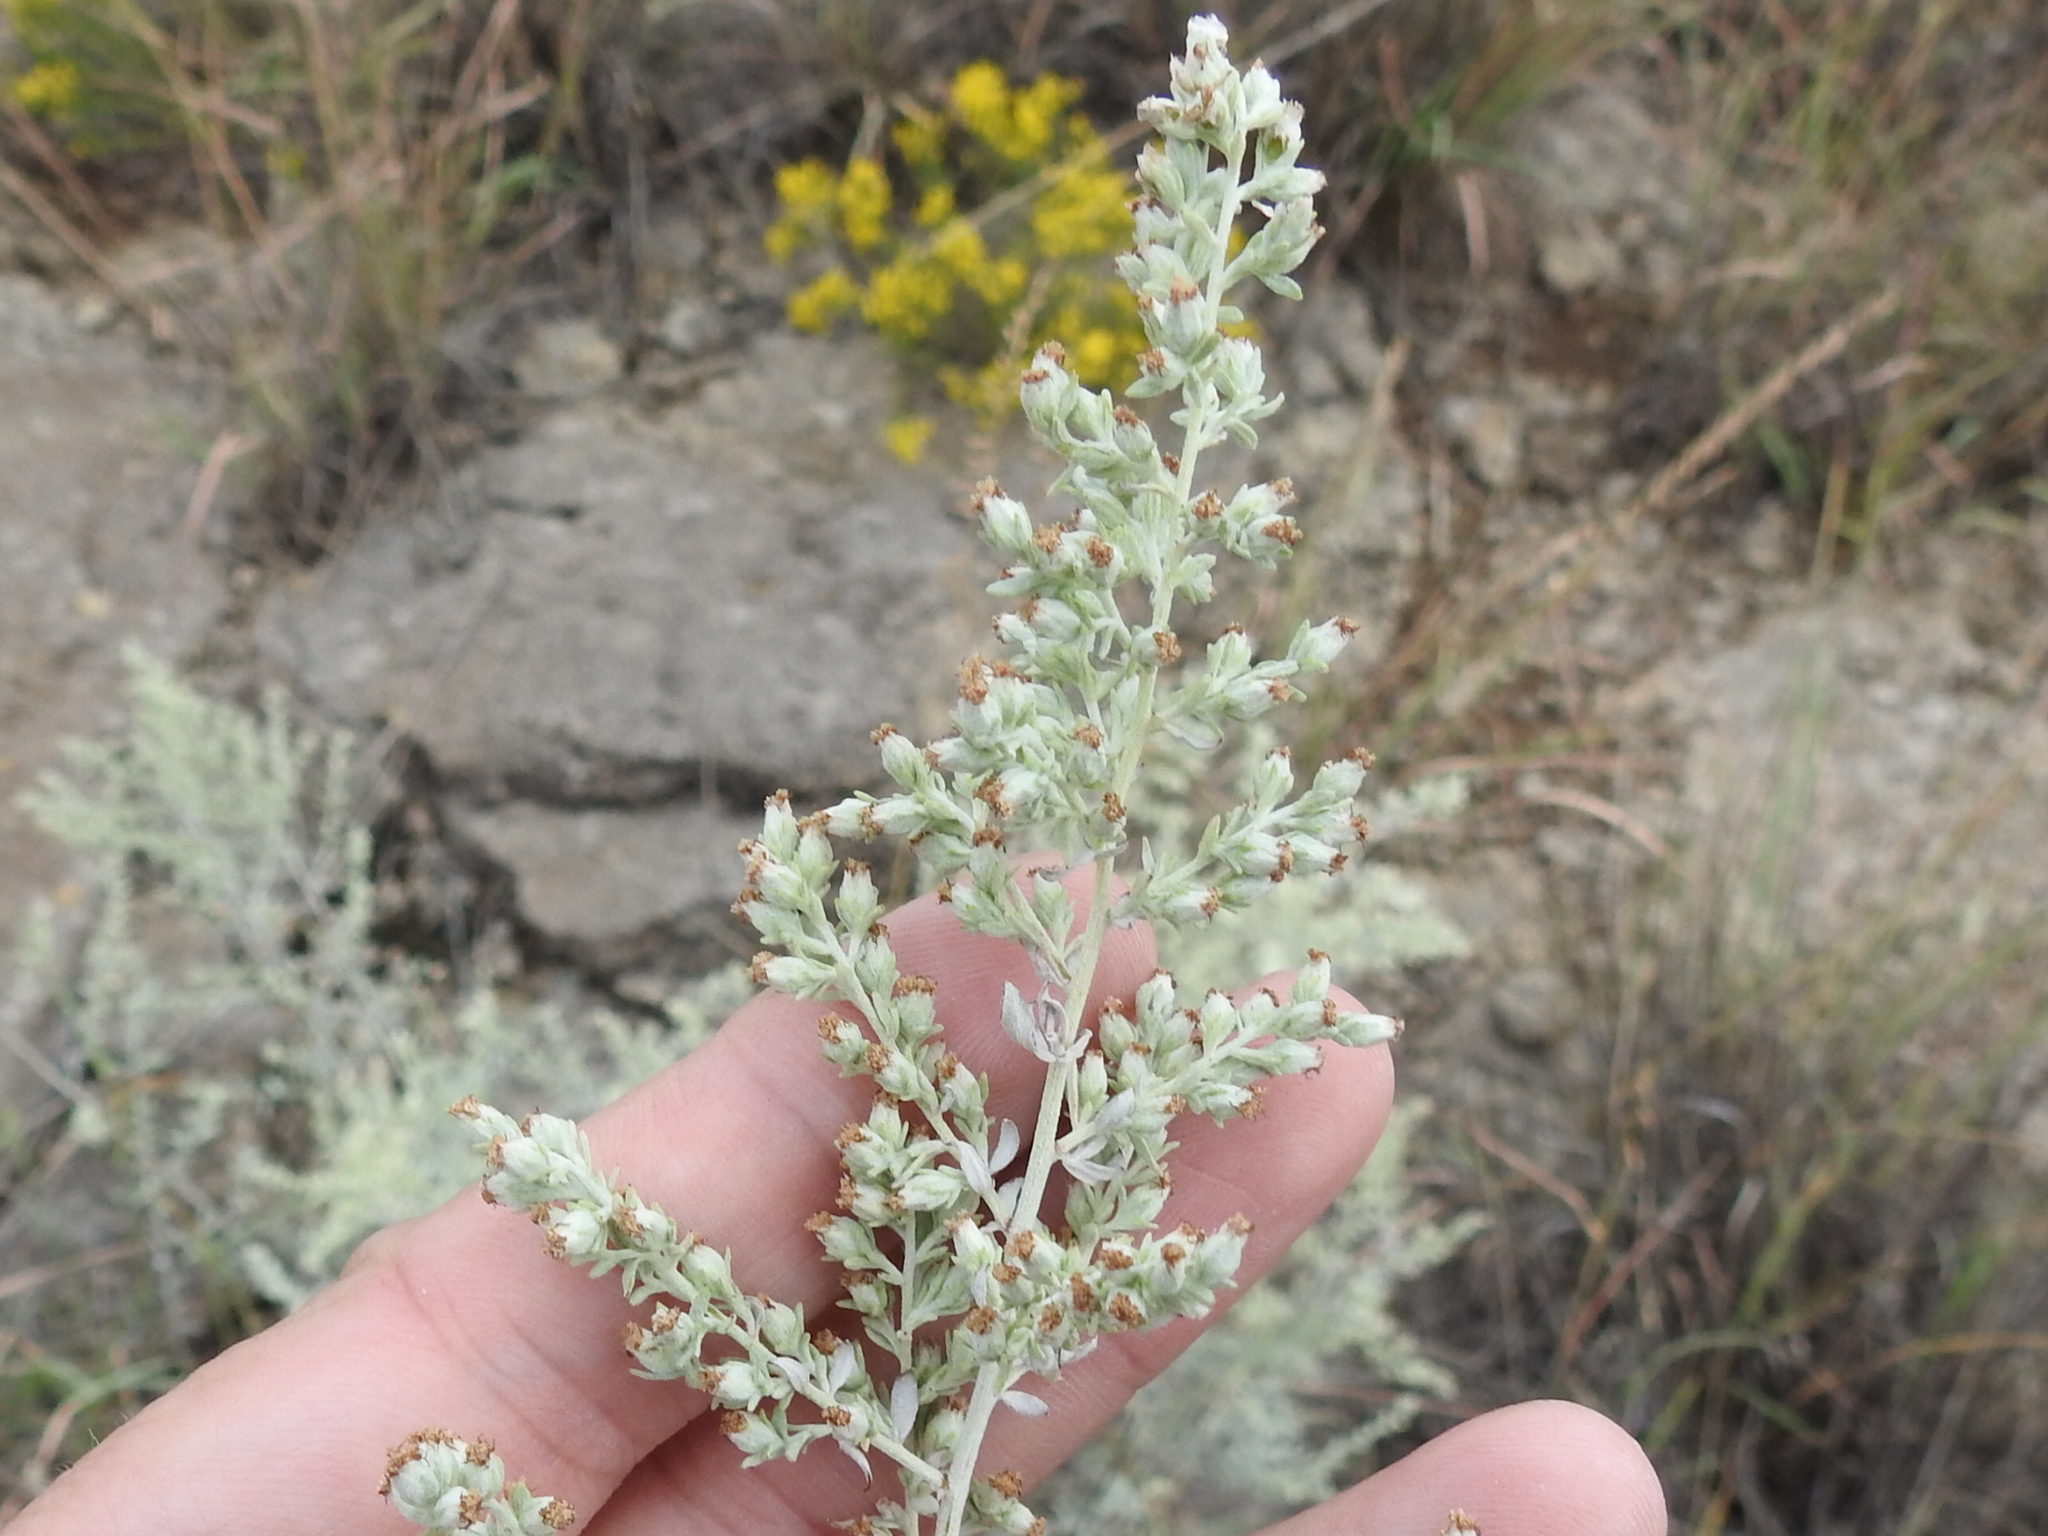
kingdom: Plantae
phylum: Tracheophyta
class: Magnoliopsida
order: Asterales
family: Asteraceae
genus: Artemisia
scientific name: Artemisia ludoviciana
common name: Western mugwort
